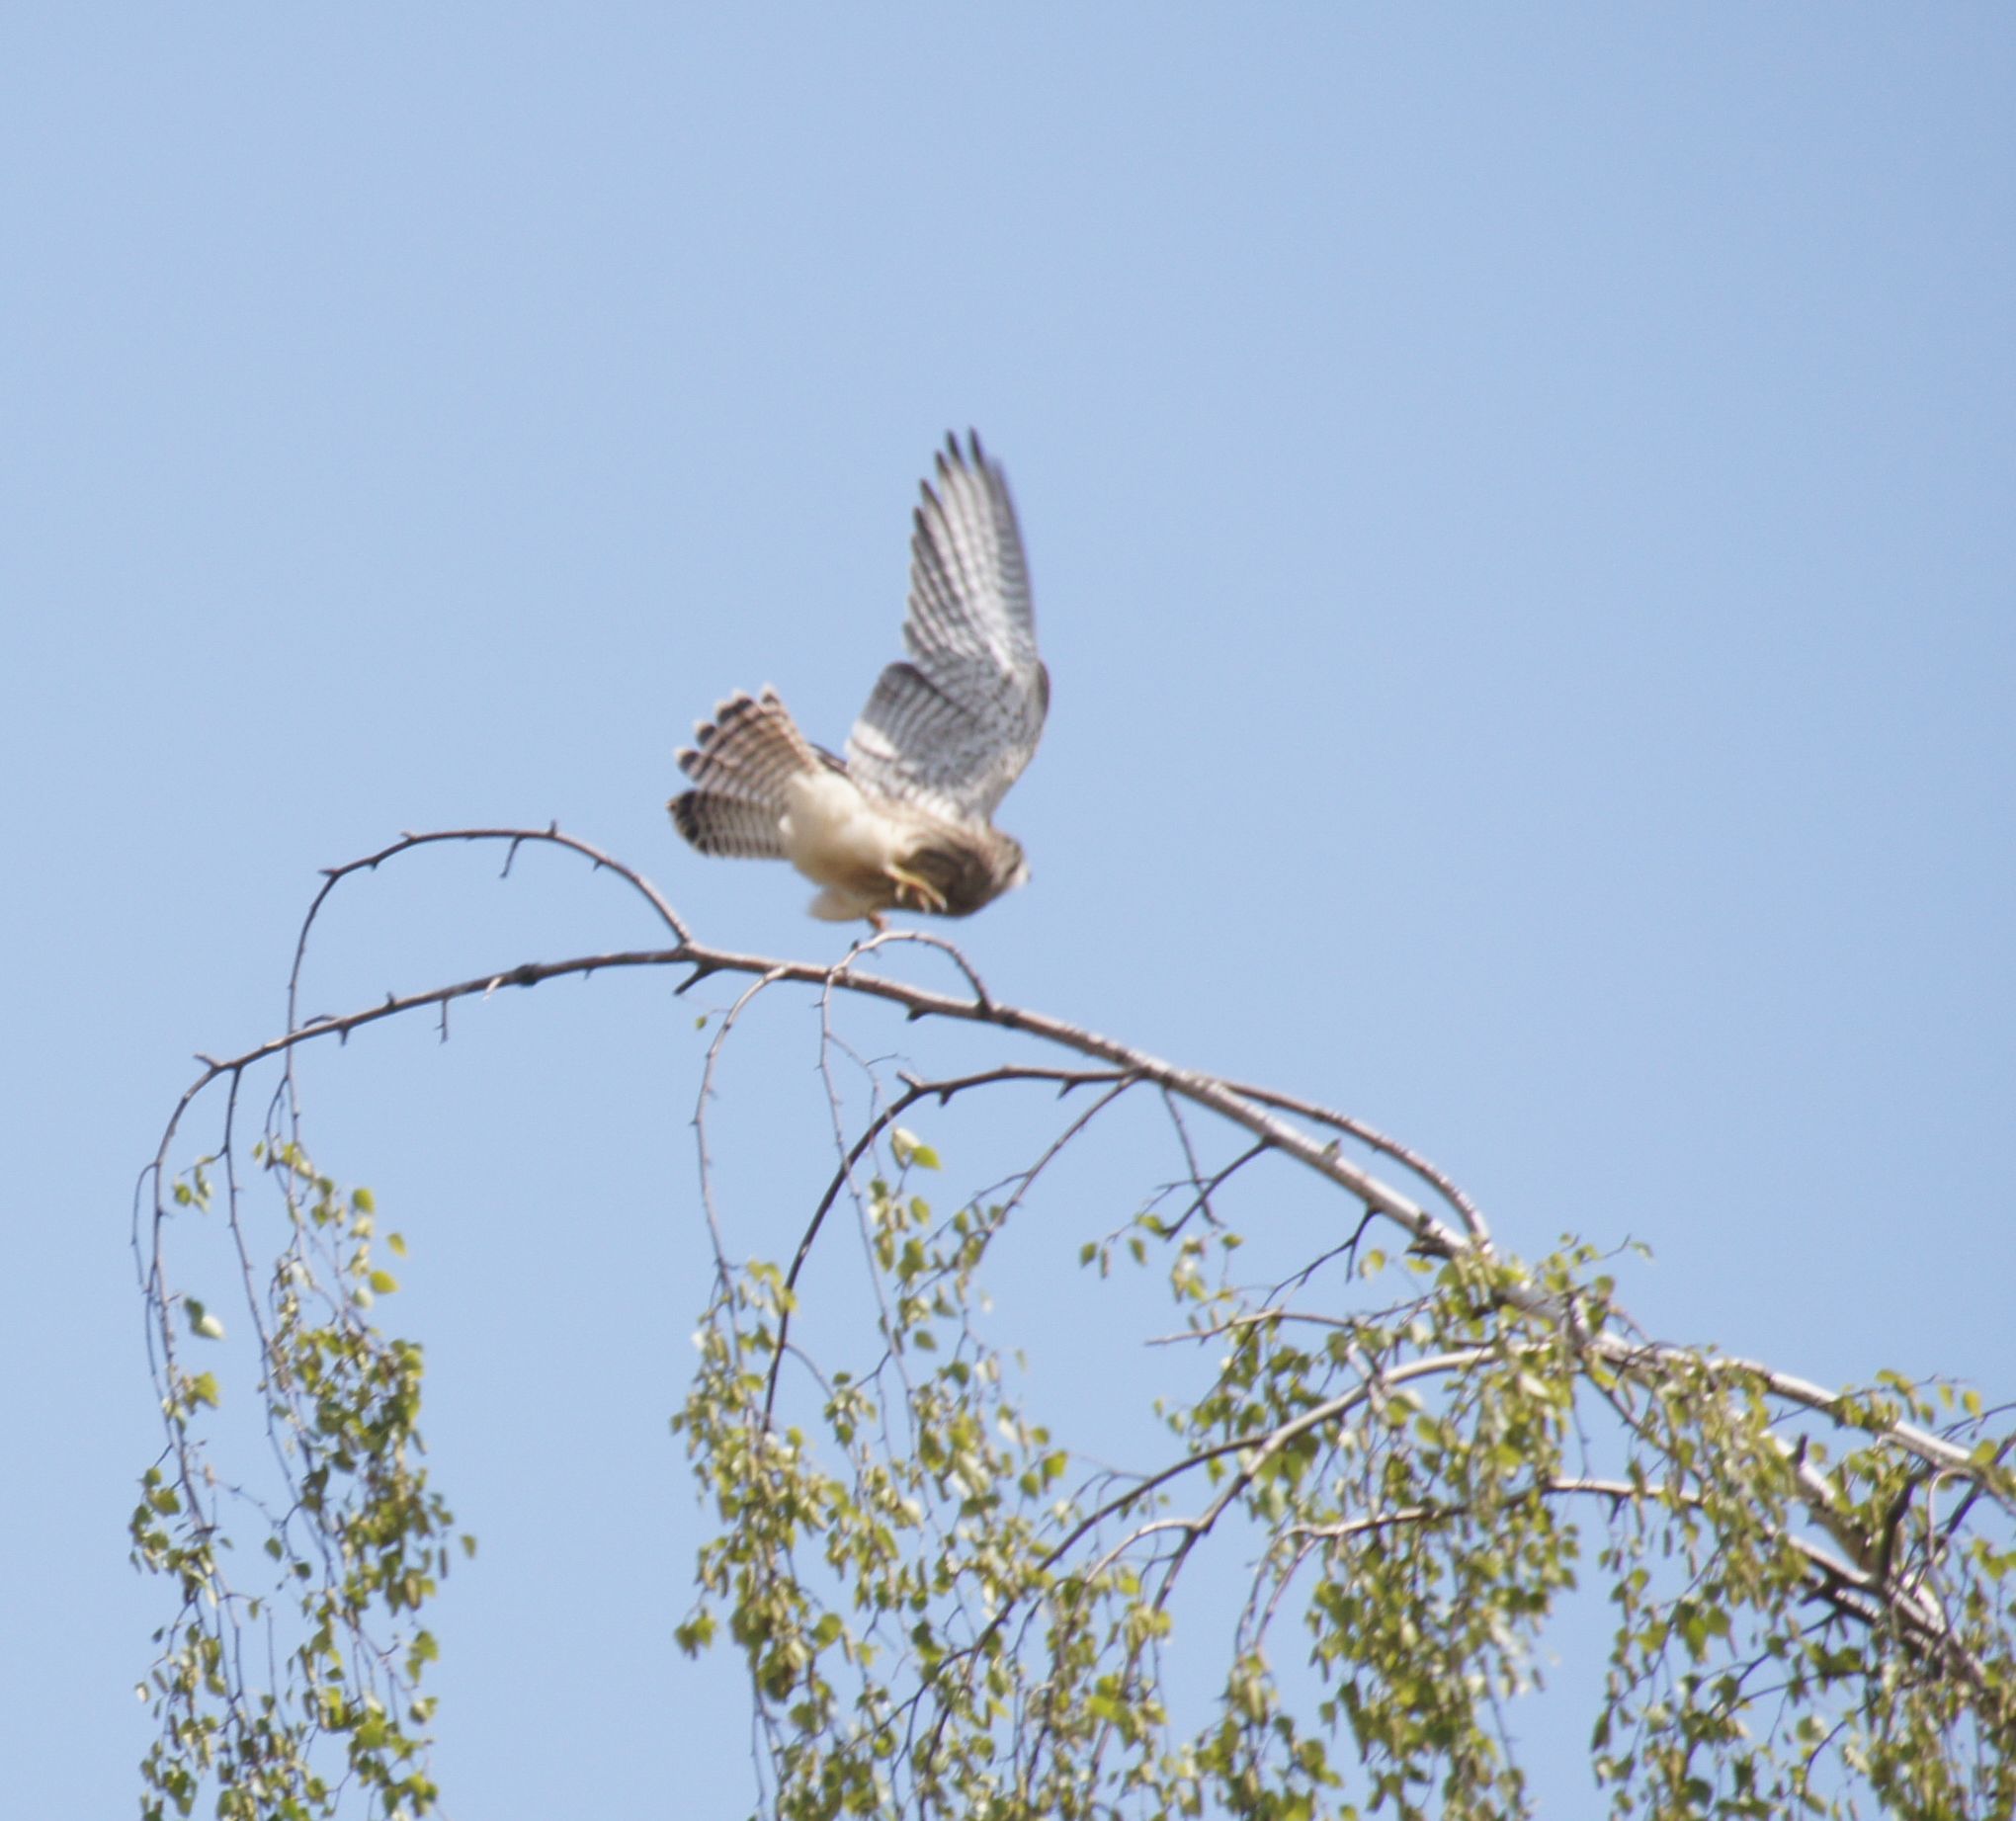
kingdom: Animalia
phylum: Chordata
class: Aves
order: Falconiformes
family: Falconidae
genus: Falco
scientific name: Falco tinnunculus
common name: Common kestrel
